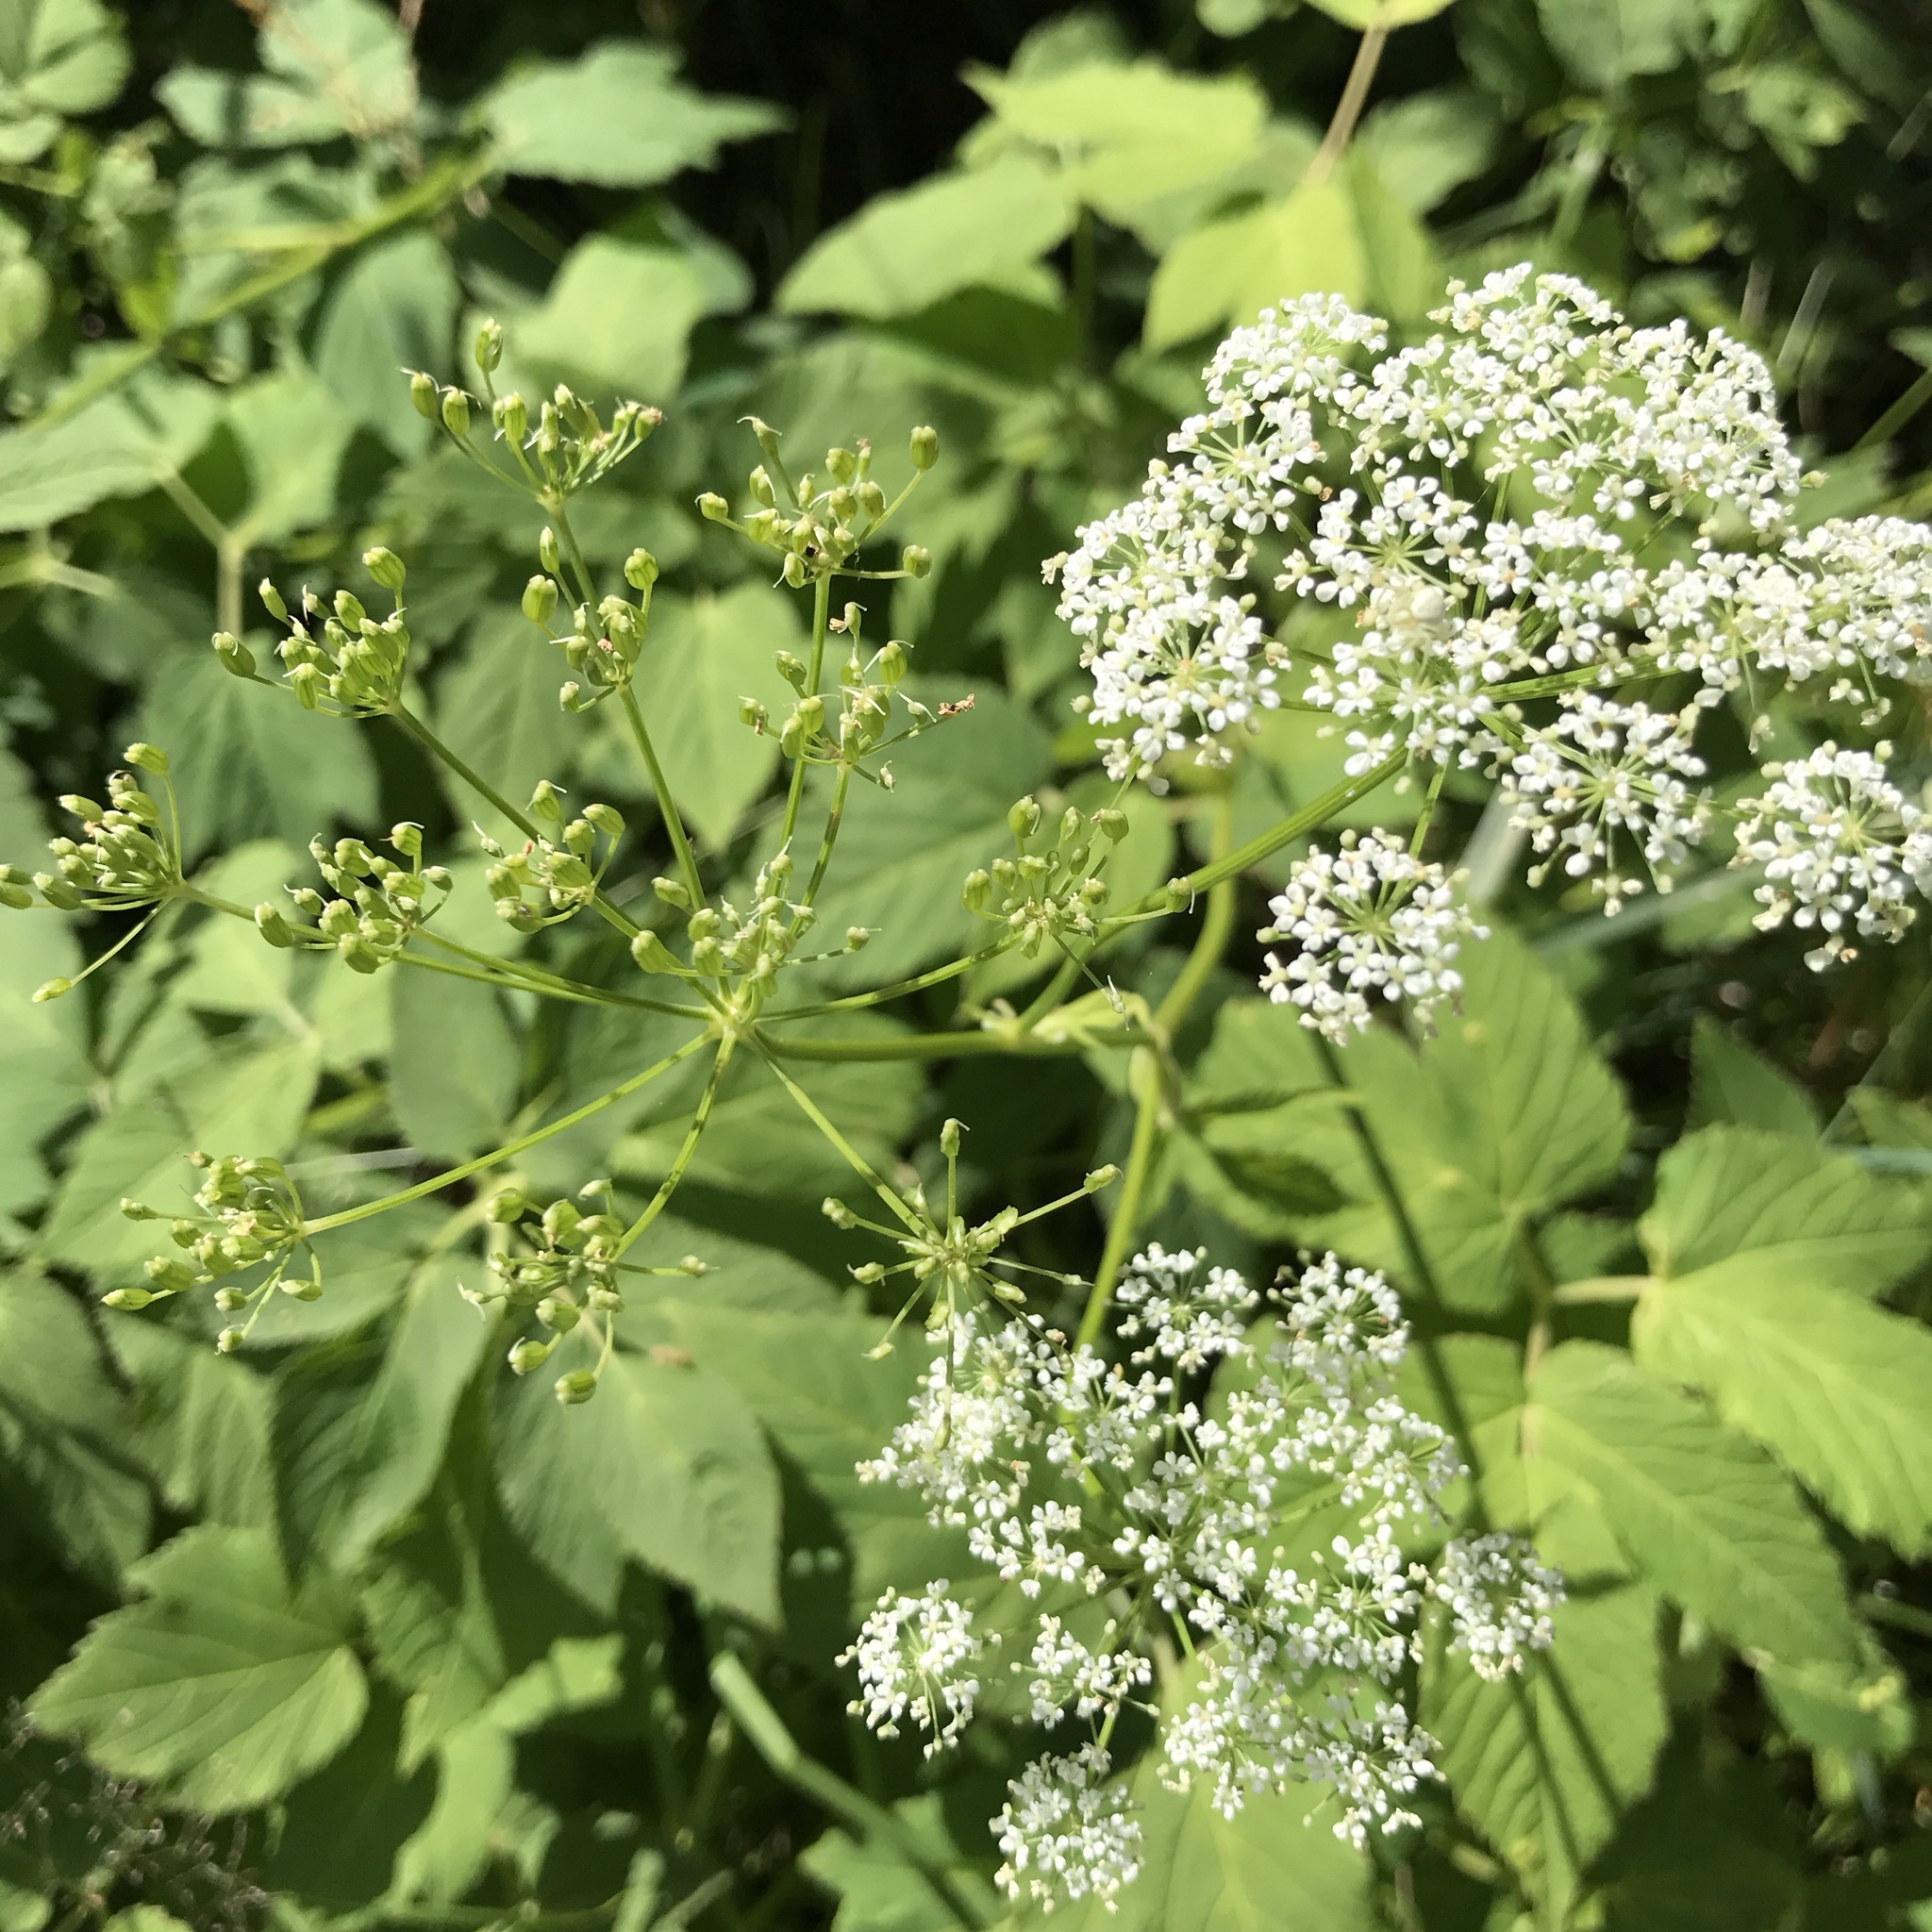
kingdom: Plantae
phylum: Tracheophyta
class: Magnoliopsida
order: Apiales
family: Apiaceae
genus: Aegopodium
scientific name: Aegopodium podagraria
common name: Ground-elder
